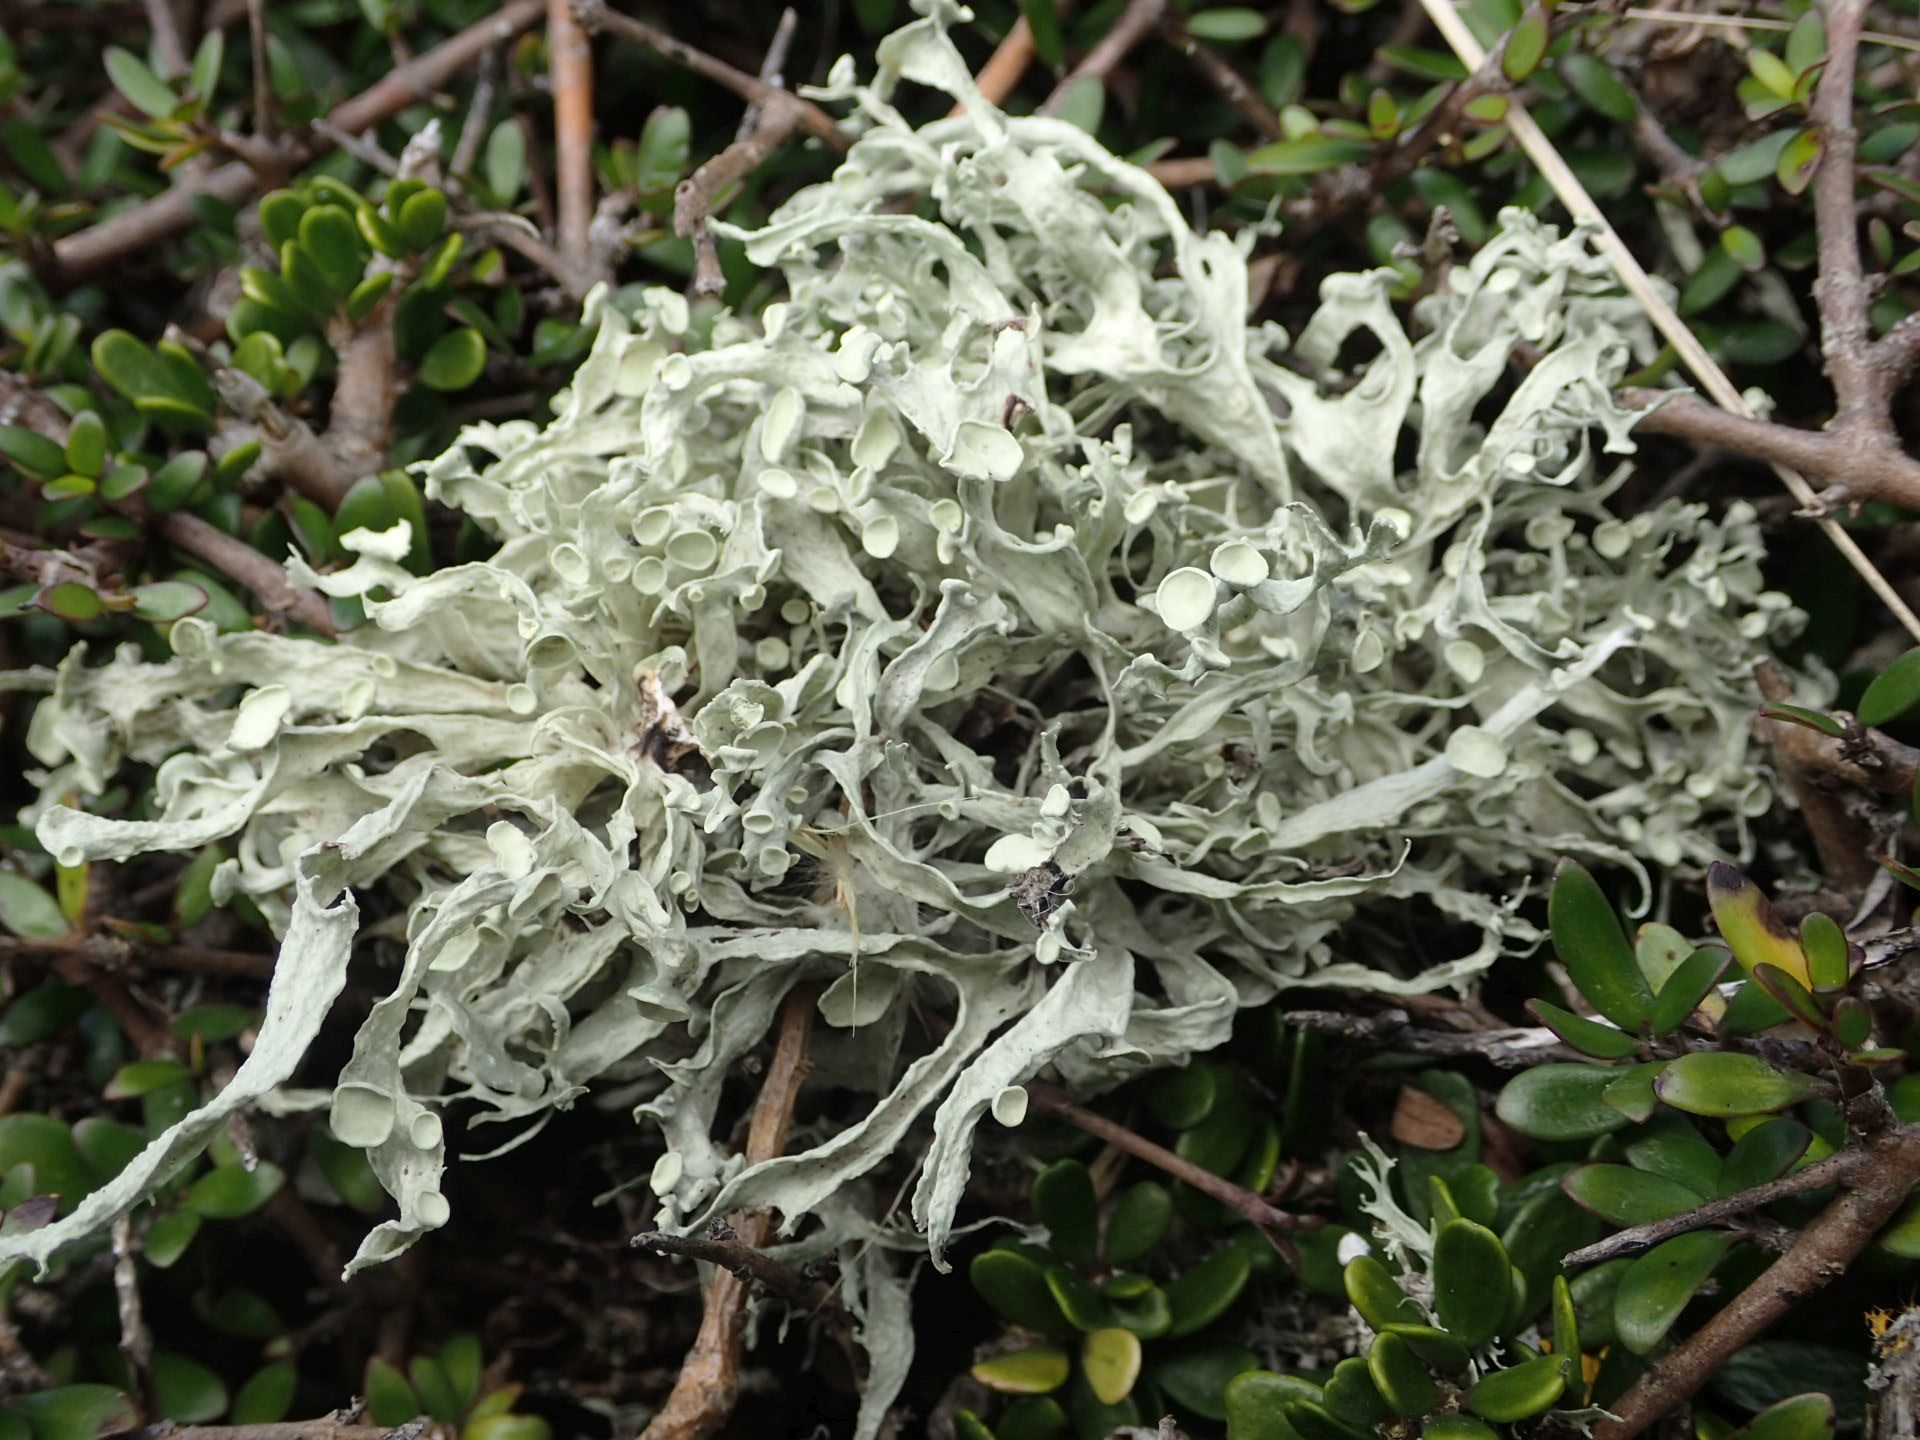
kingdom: Fungi
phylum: Ascomycota
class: Lecanoromycetes
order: Lecanorales
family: Ramalinaceae
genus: Ramalina
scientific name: Ramalina inflexa
